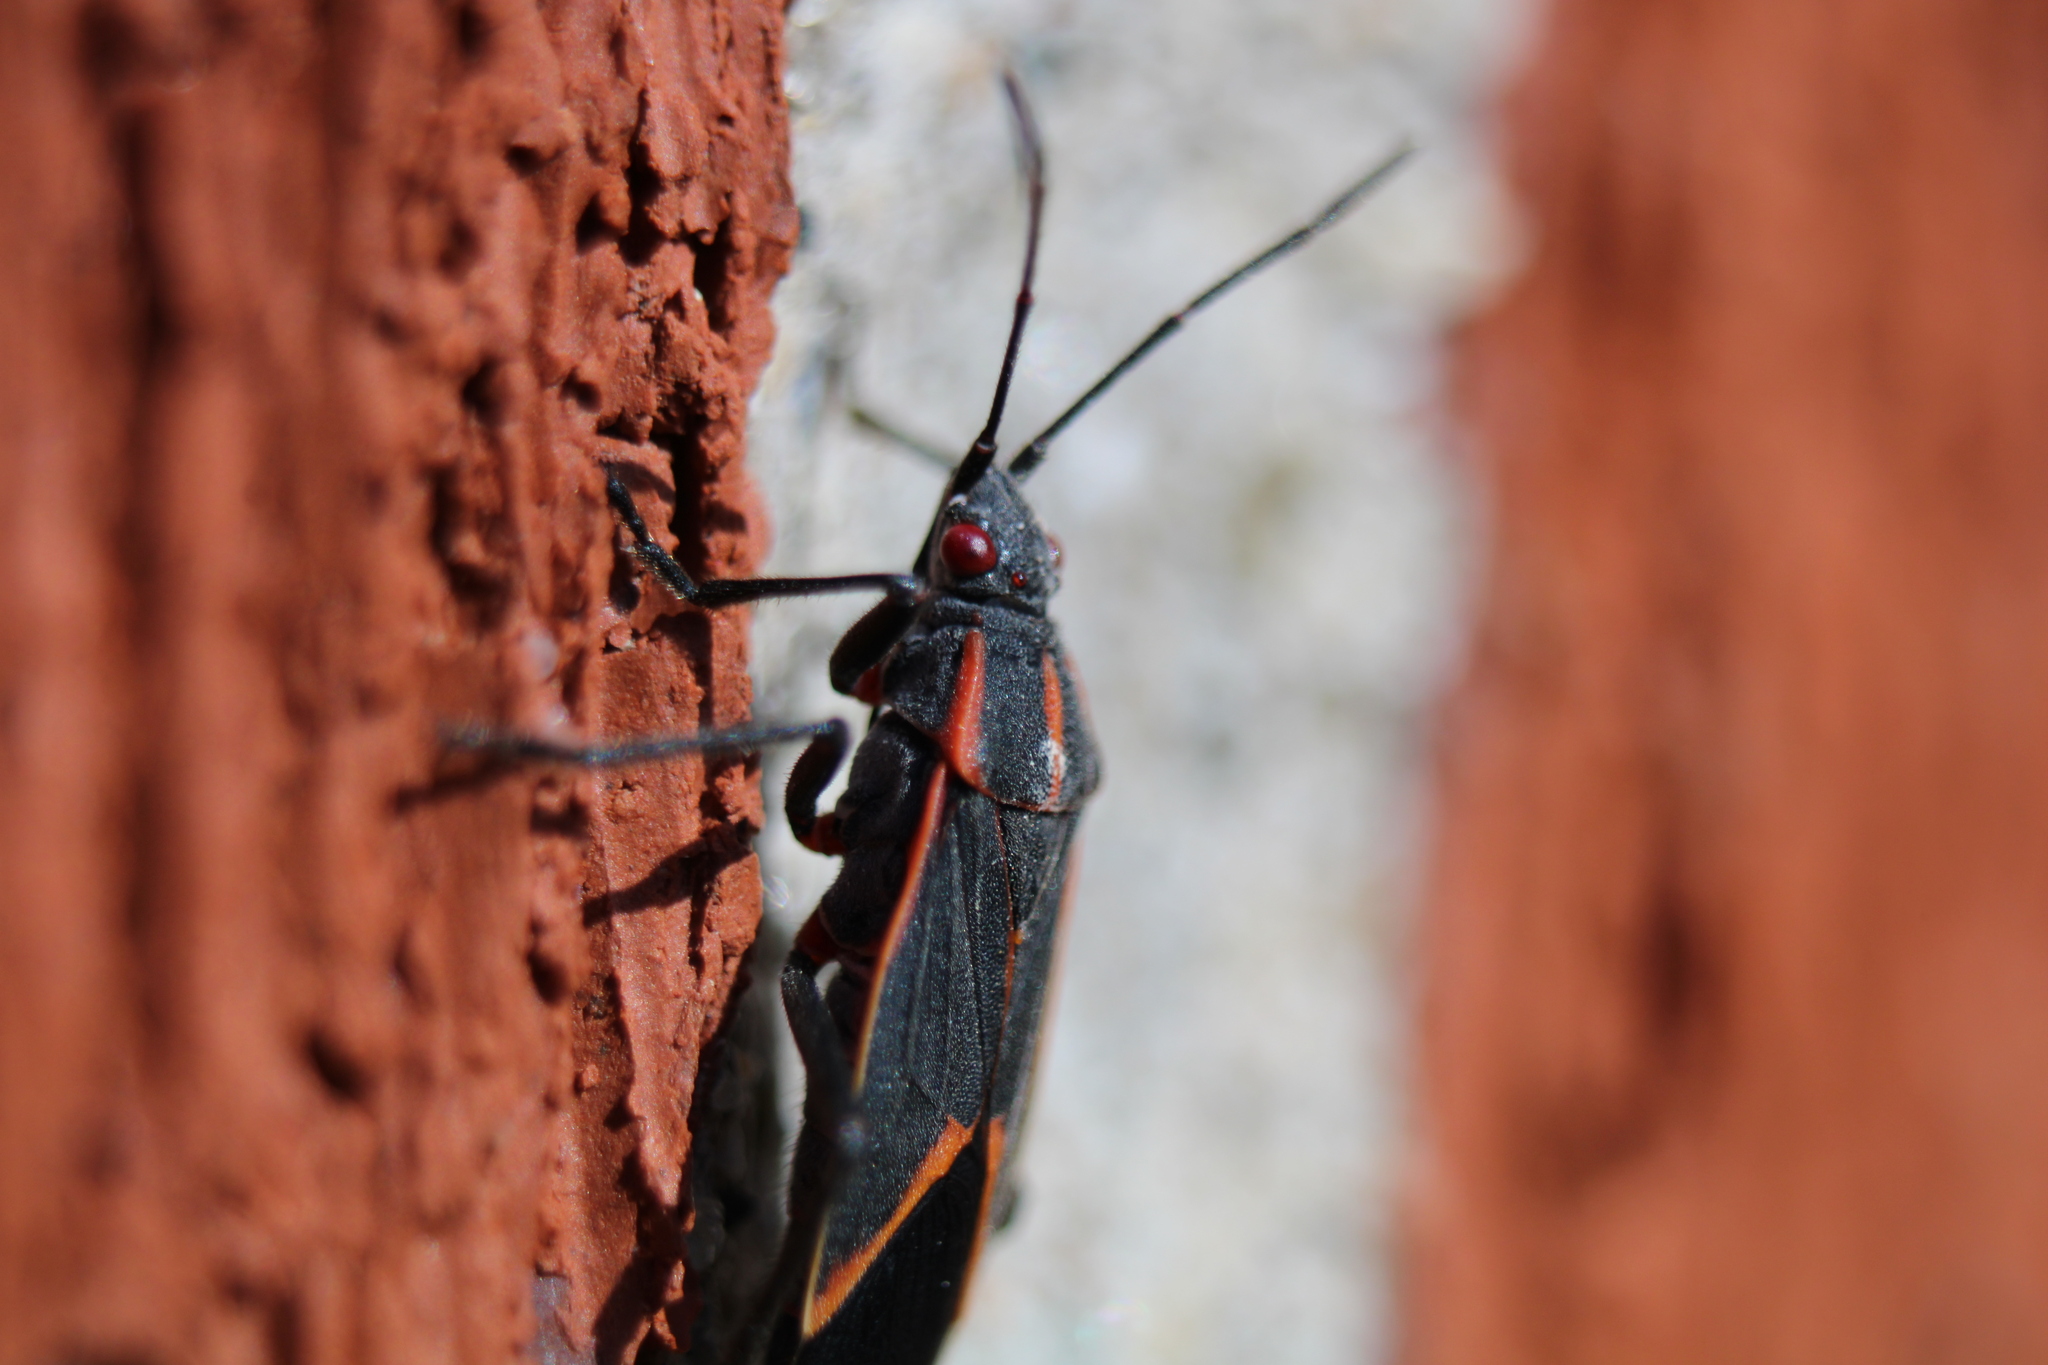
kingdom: Animalia
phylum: Arthropoda
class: Insecta
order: Hemiptera
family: Rhopalidae
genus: Boisea
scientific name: Boisea trivittata
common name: Boxelder bug
